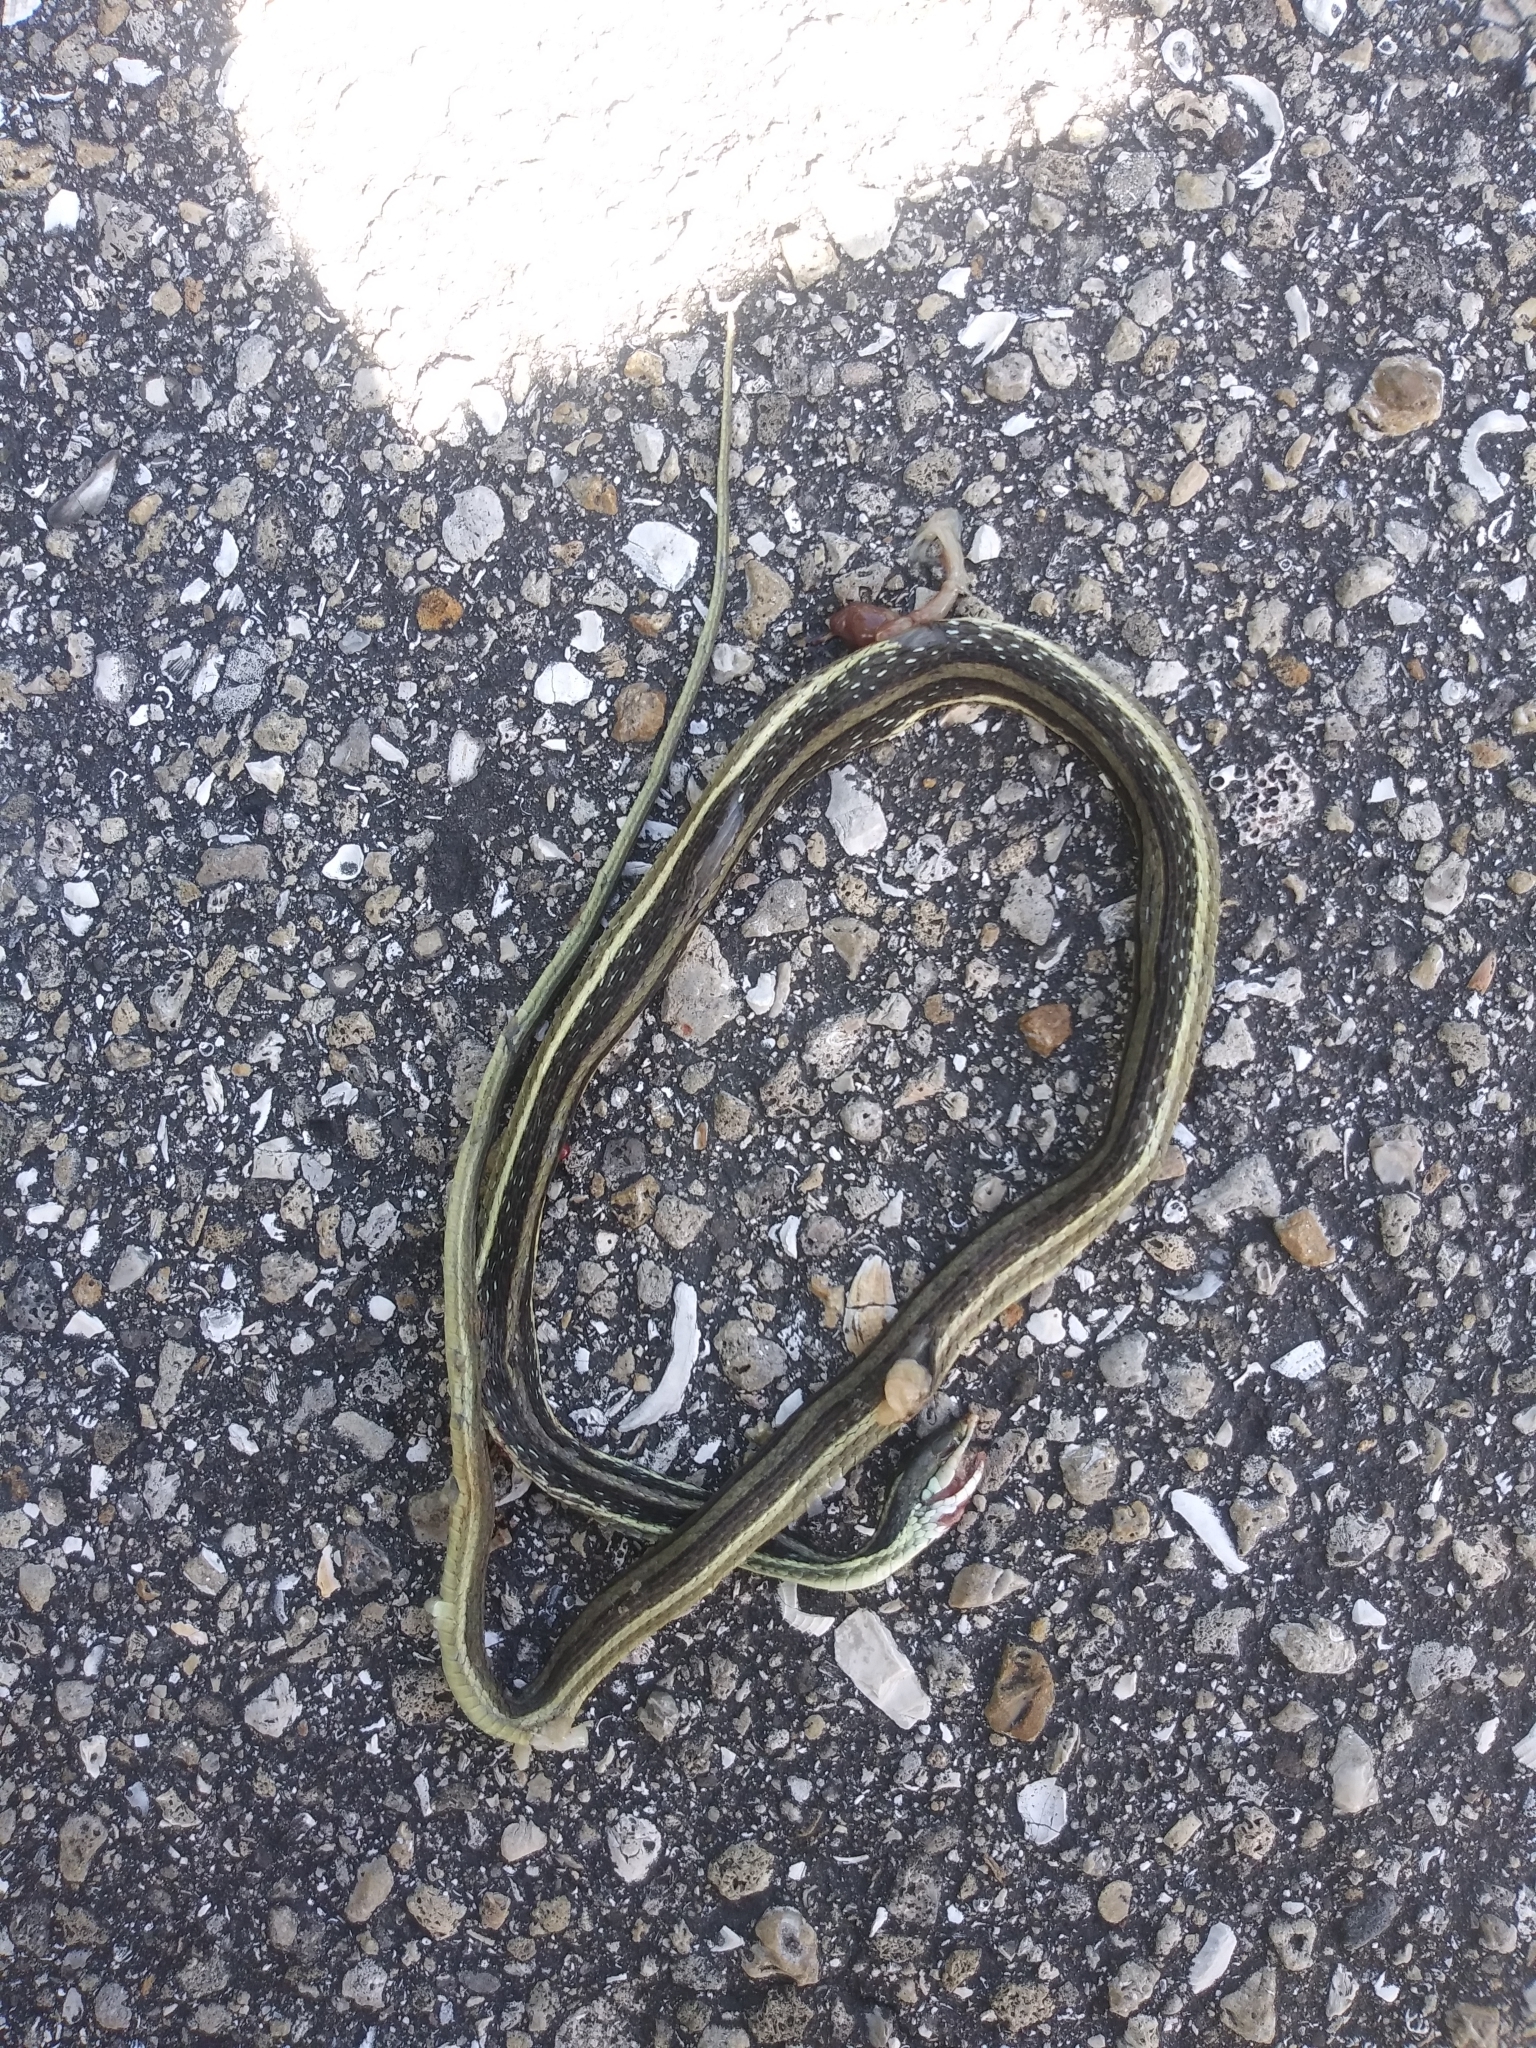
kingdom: Animalia
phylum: Chordata
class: Squamata
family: Colubridae
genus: Thamnophis
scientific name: Thamnophis saurita
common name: Eastern ribbonsnake
